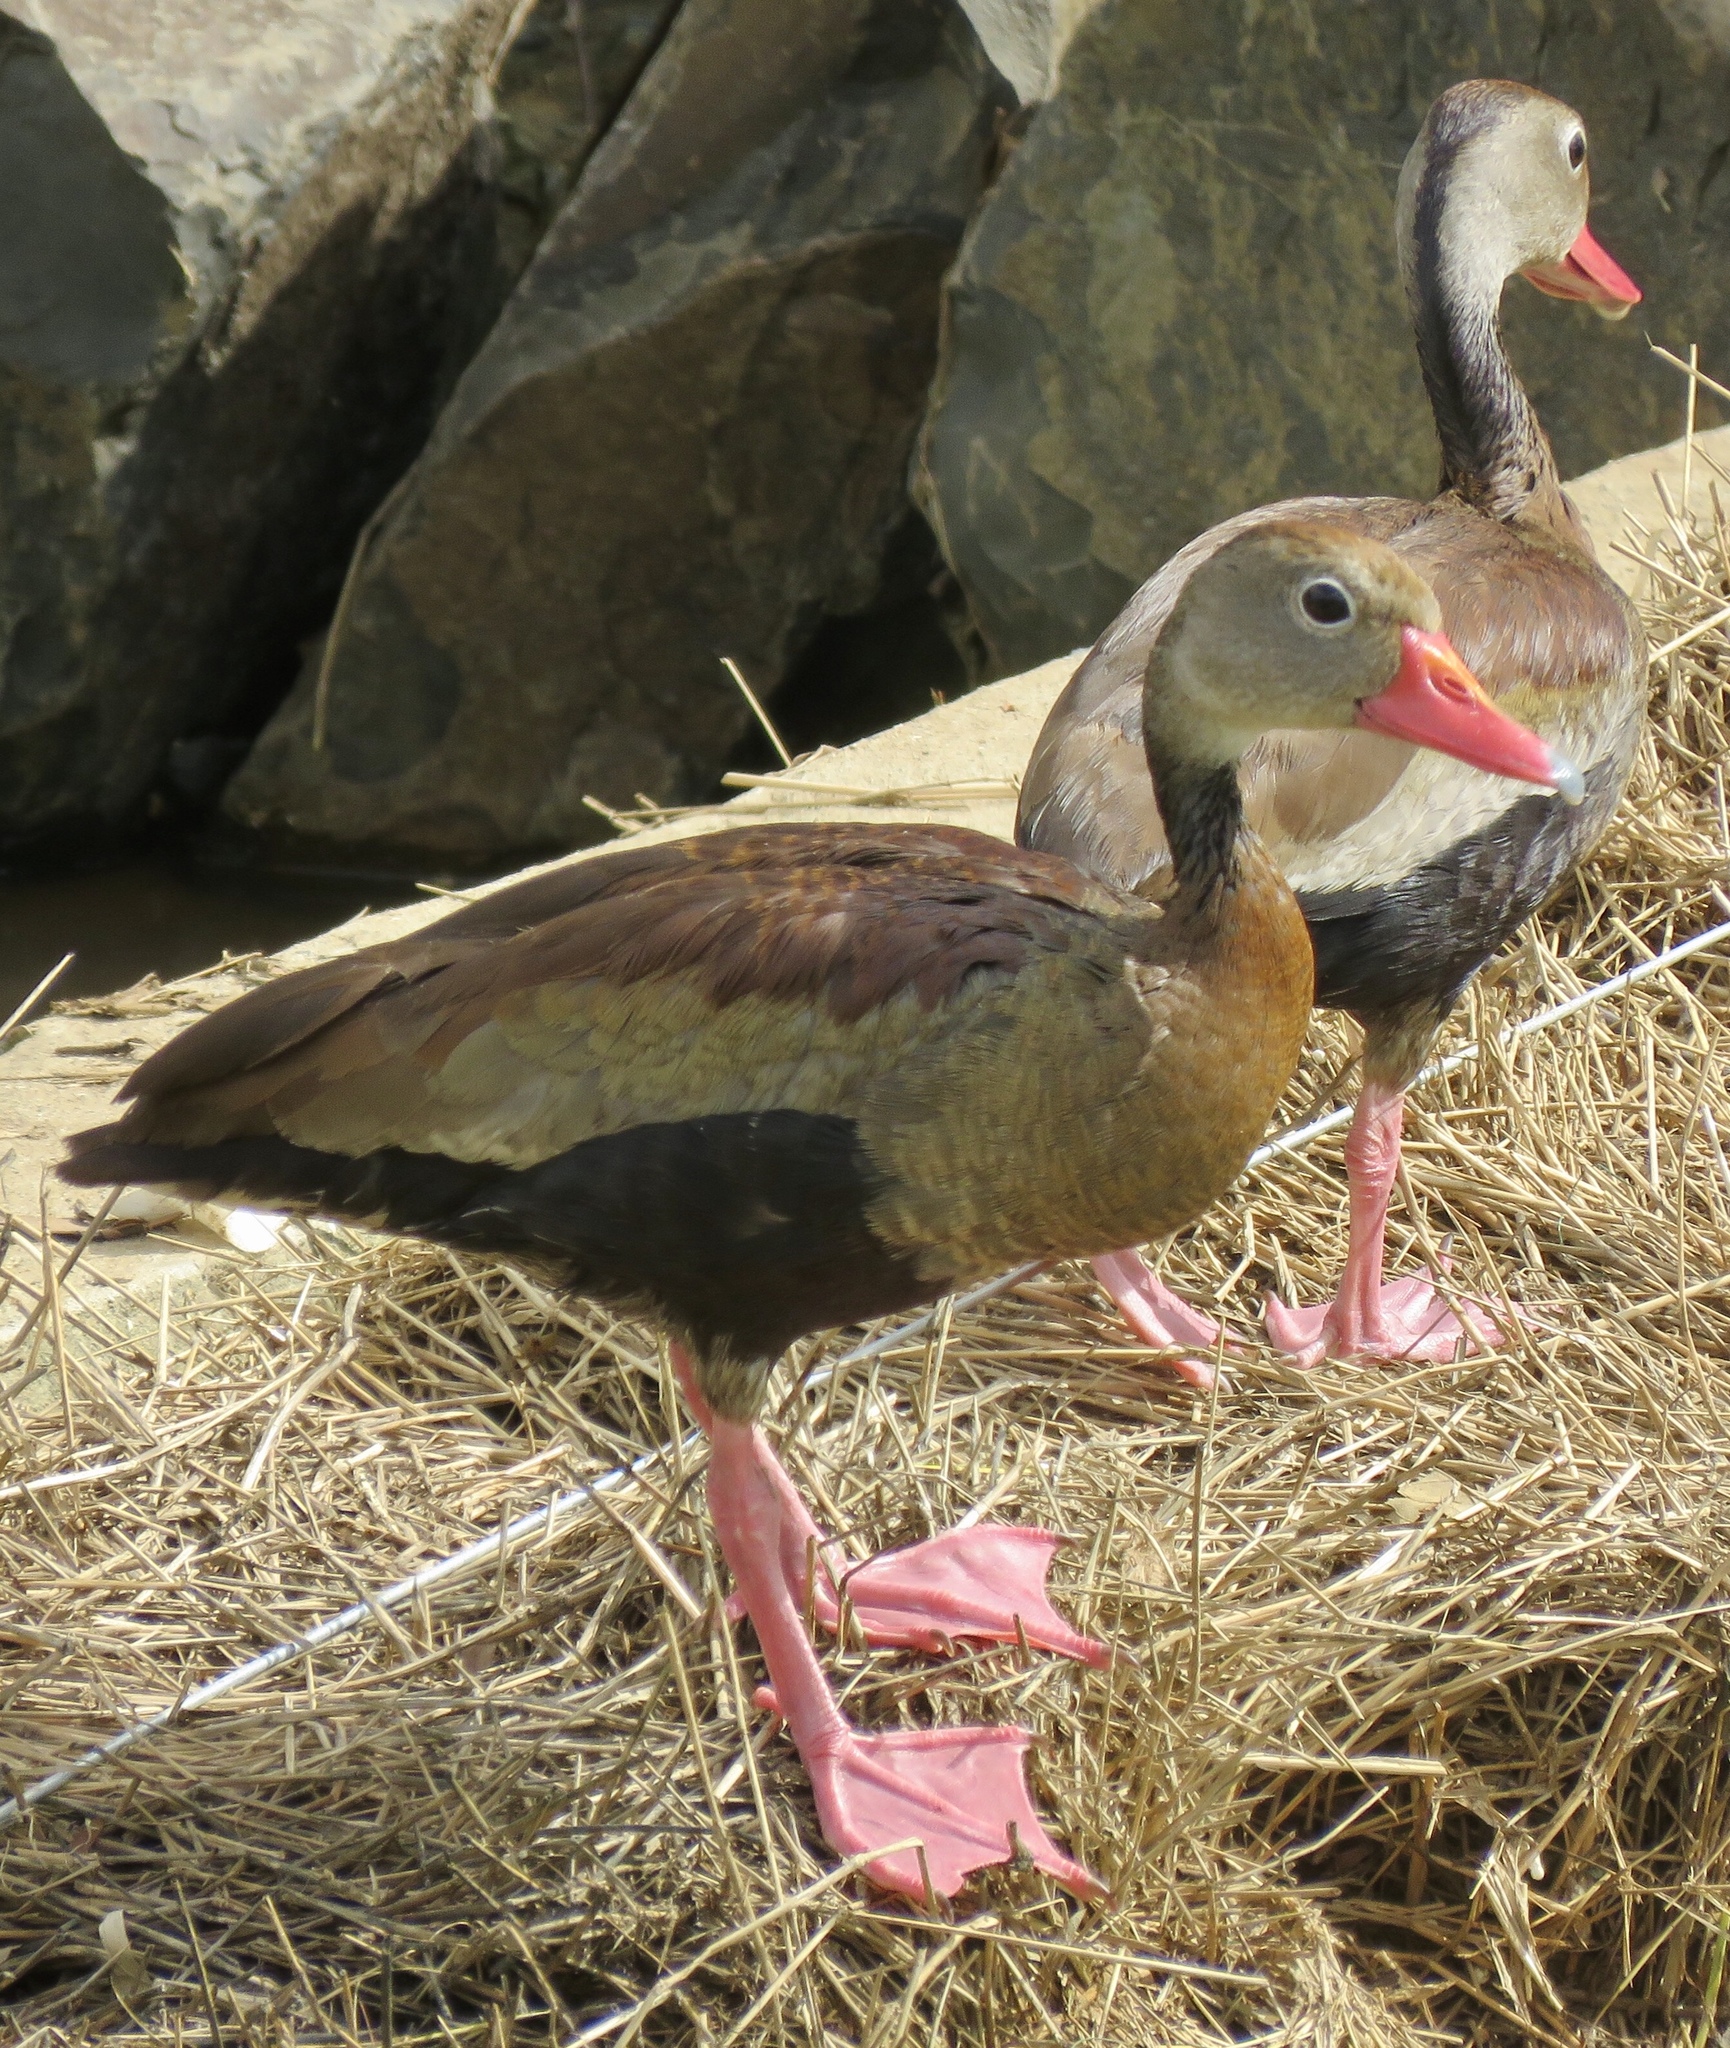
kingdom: Animalia
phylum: Chordata
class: Aves
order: Anseriformes
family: Anatidae
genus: Dendrocygna
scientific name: Dendrocygna autumnalis
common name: Black-bellied whistling duck
